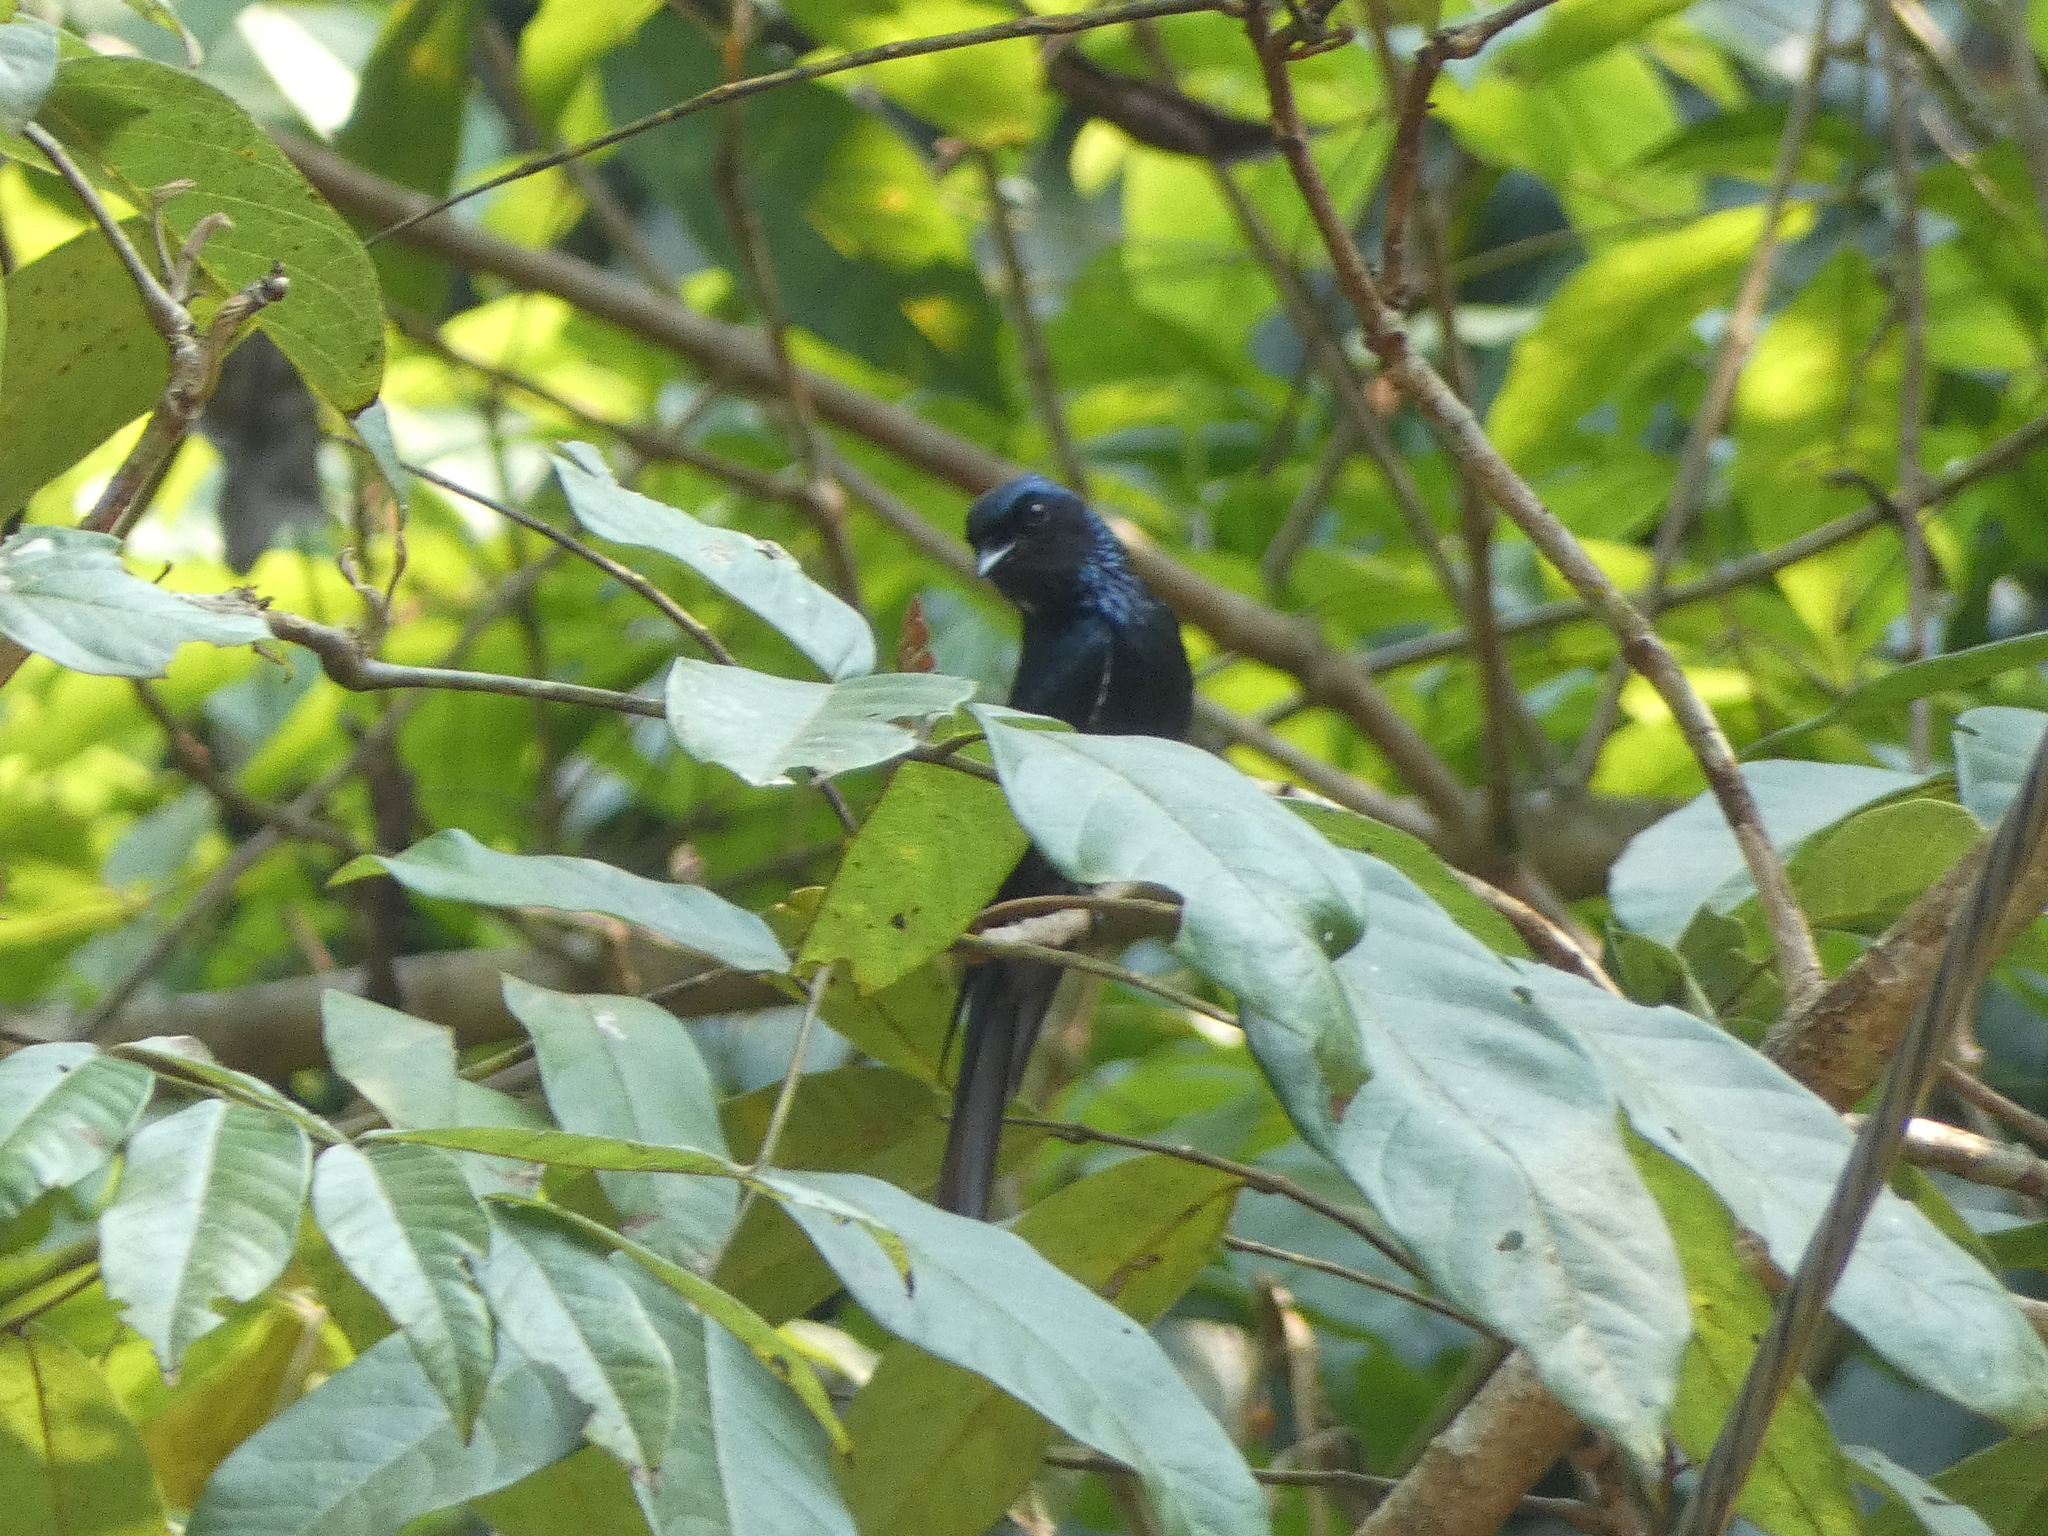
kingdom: Animalia
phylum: Chordata
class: Aves
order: Passeriformes
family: Dicruridae
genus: Dicrurus
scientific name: Dicrurus aeneus
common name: Bronzed drongo
